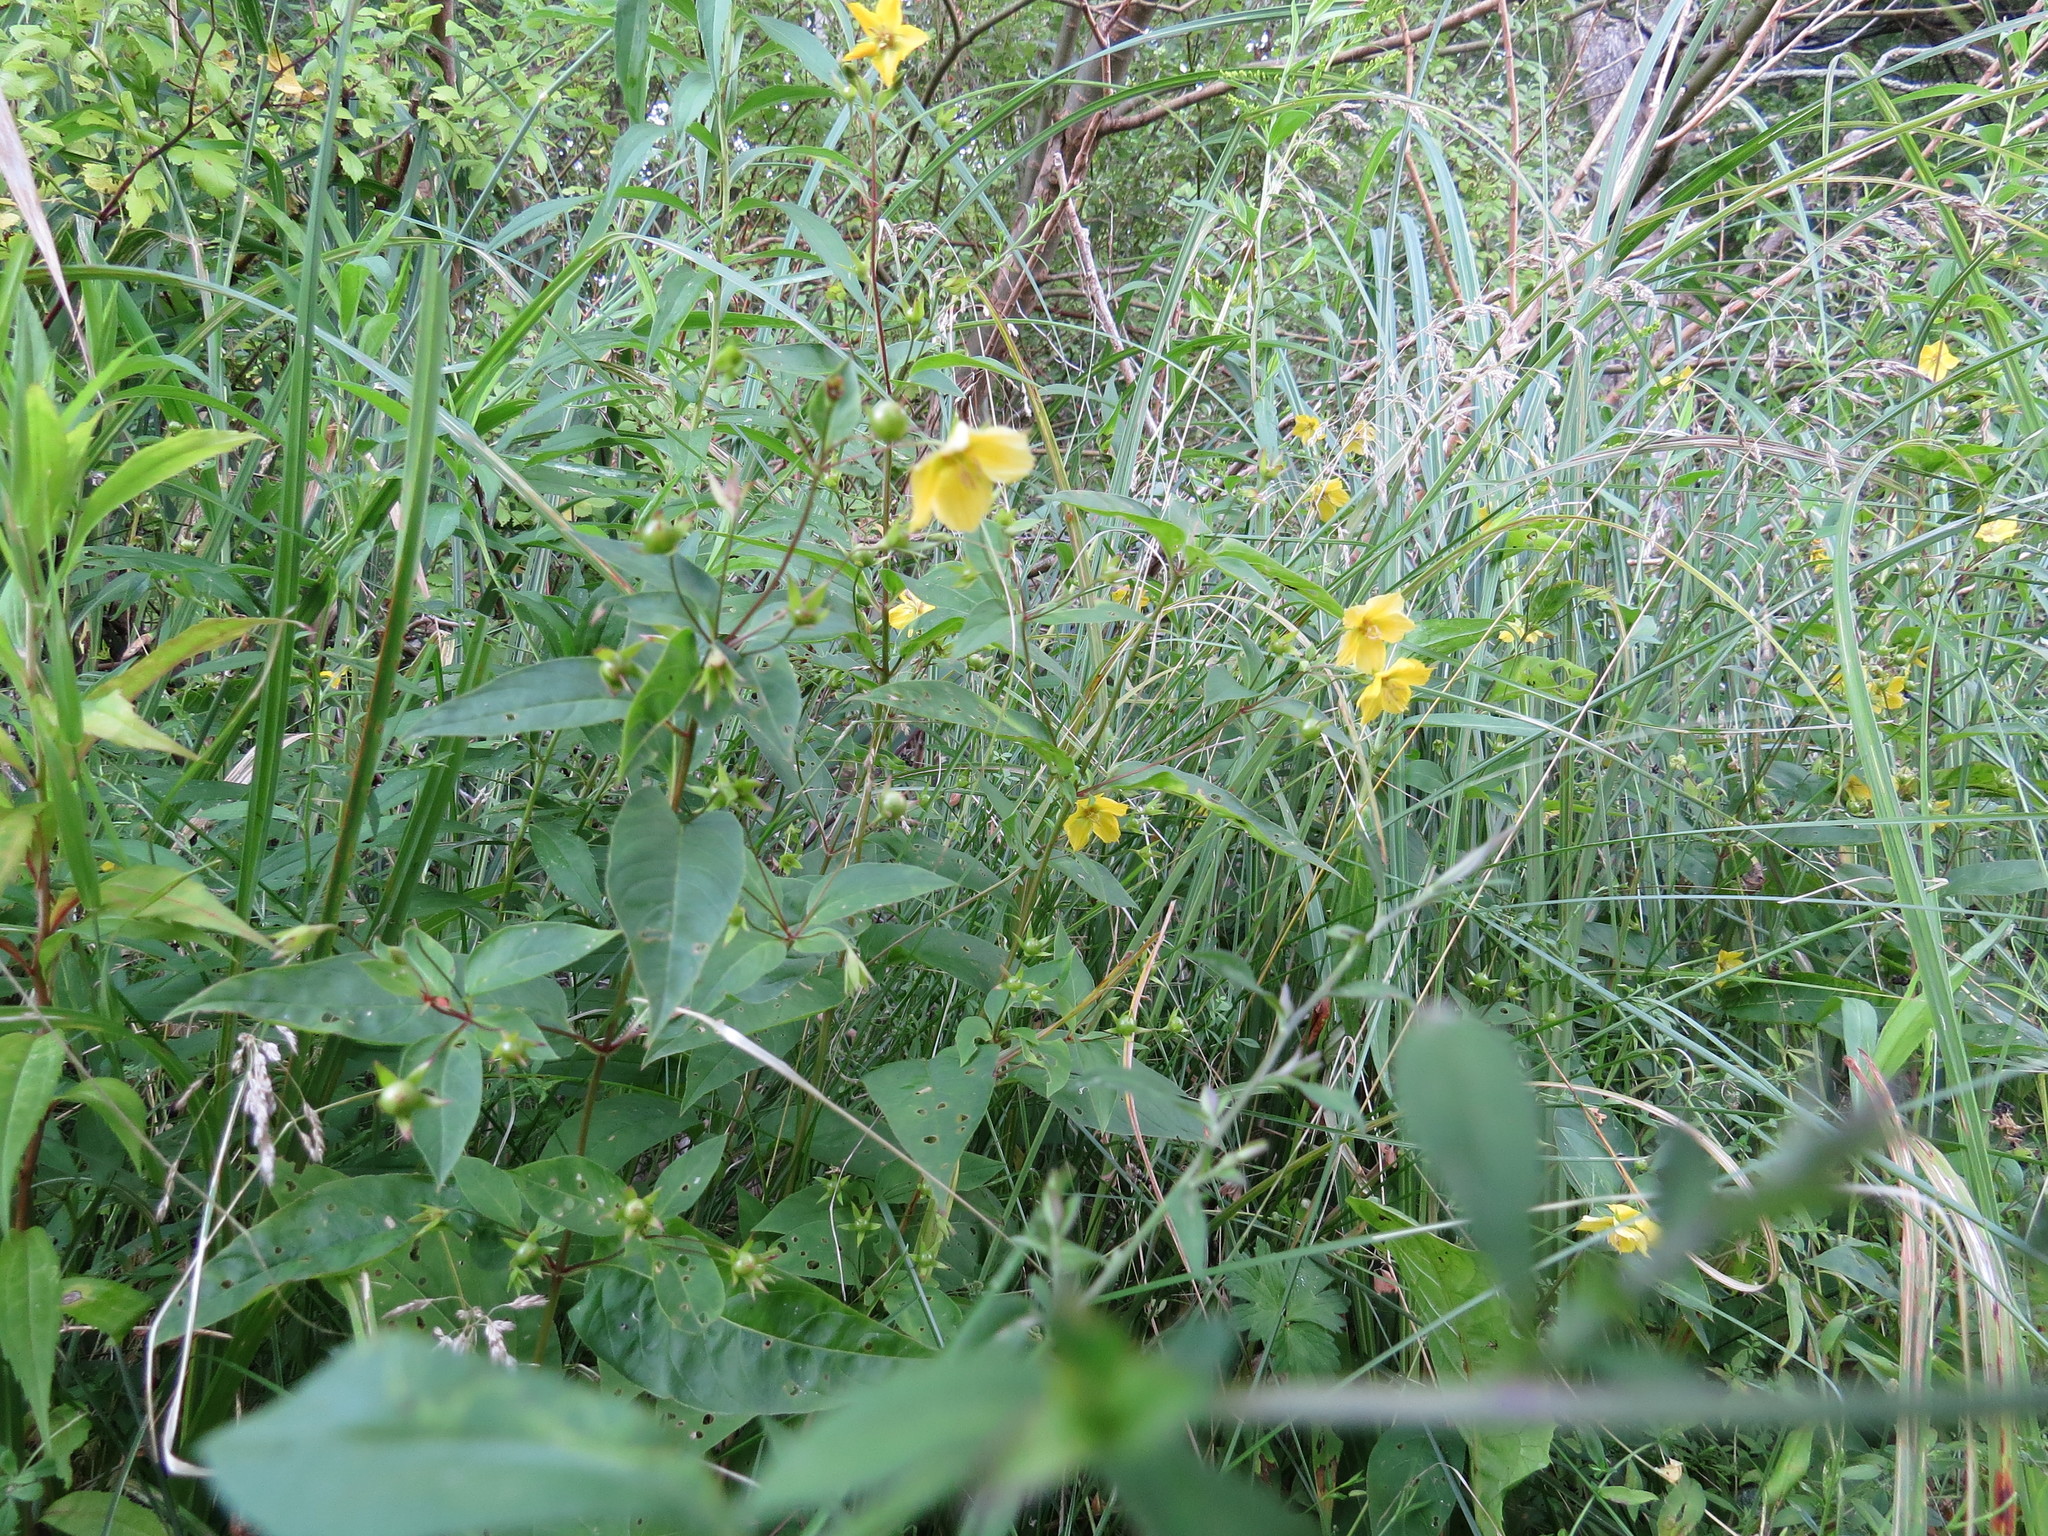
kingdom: Plantae
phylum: Tracheophyta
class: Magnoliopsida
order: Ericales
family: Primulaceae
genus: Lysimachia
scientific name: Lysimachia ciliata
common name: Fringed loosestrife
